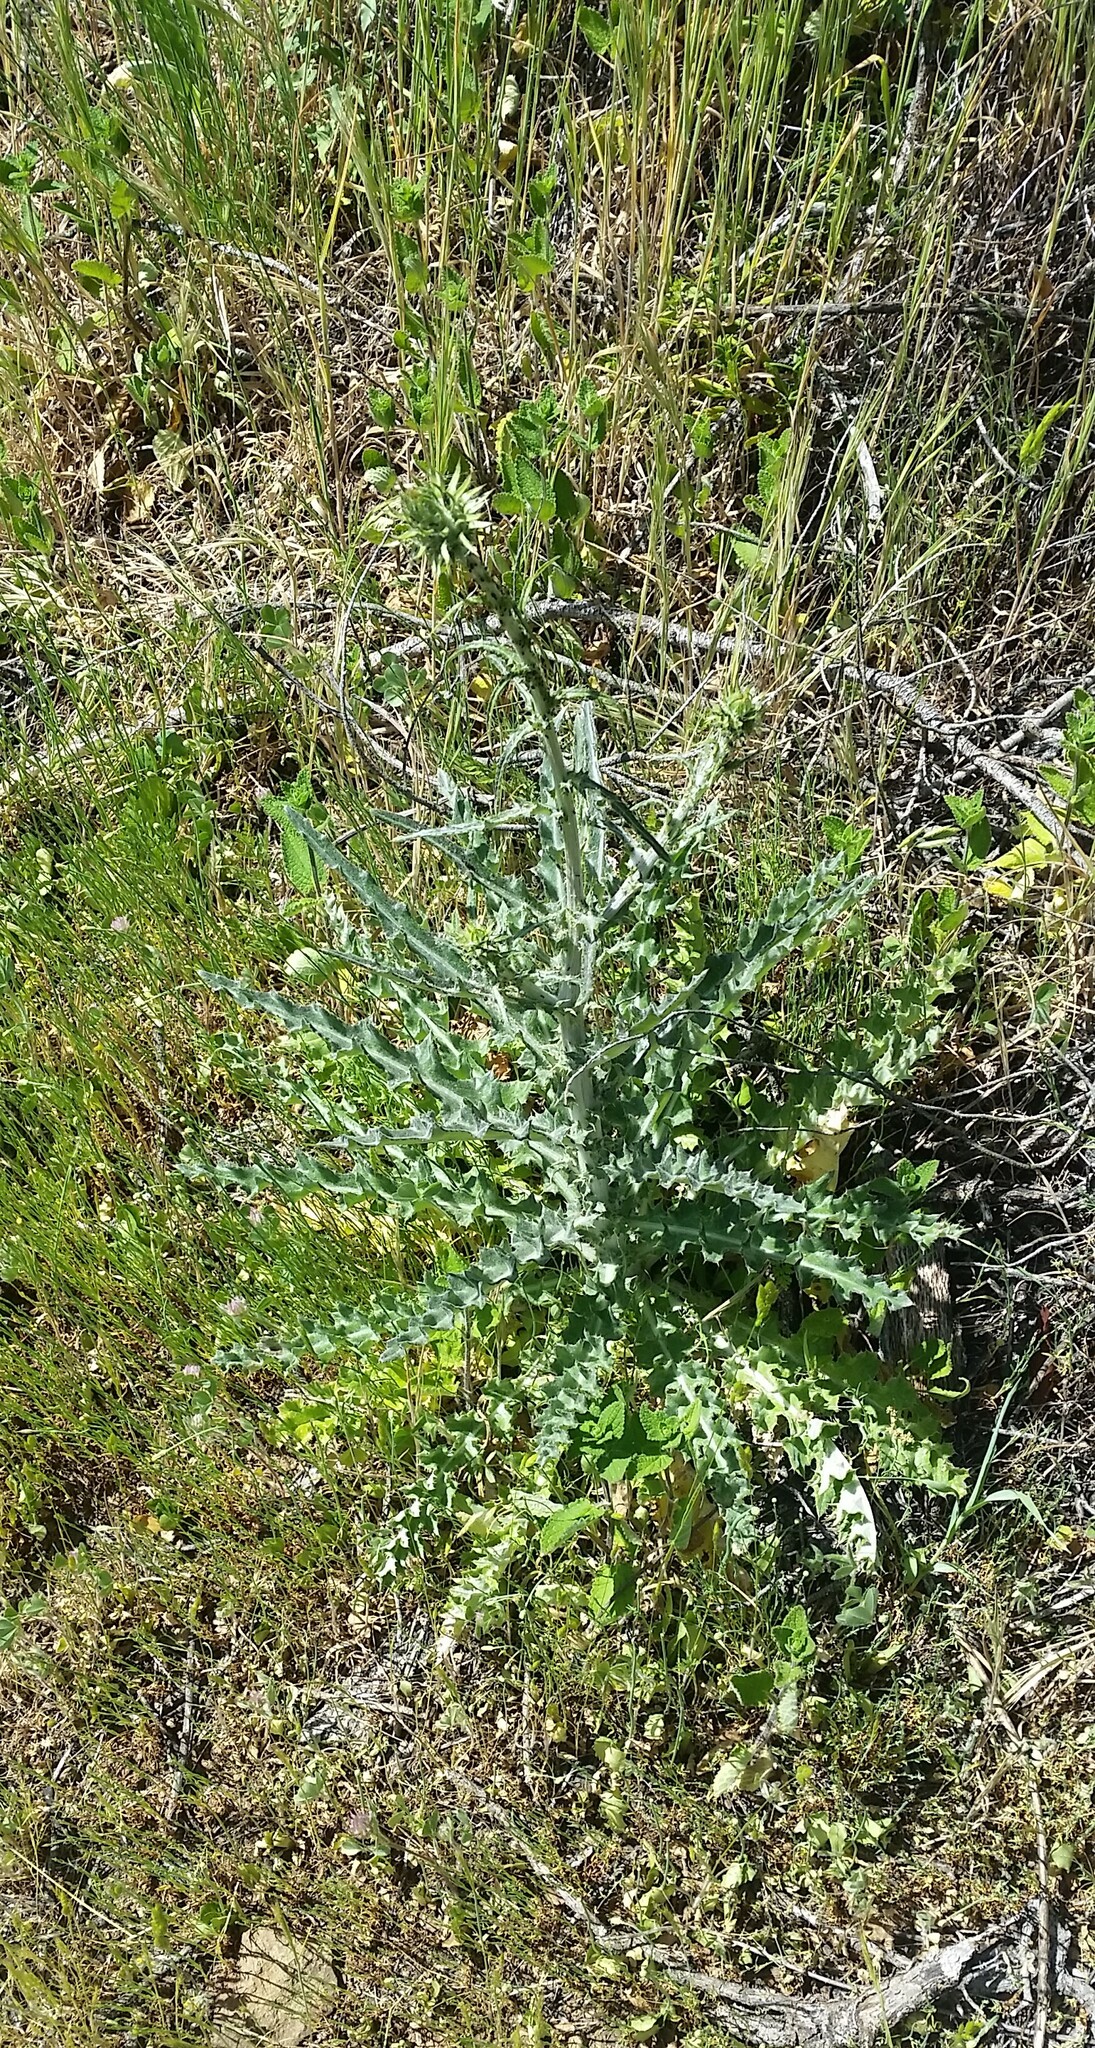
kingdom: Plantae
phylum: Tracheophyta
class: Magnoliopsida
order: Asterales
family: Asteraceae
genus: Cirsium
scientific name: Cirsium occidentale
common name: Western thistle
